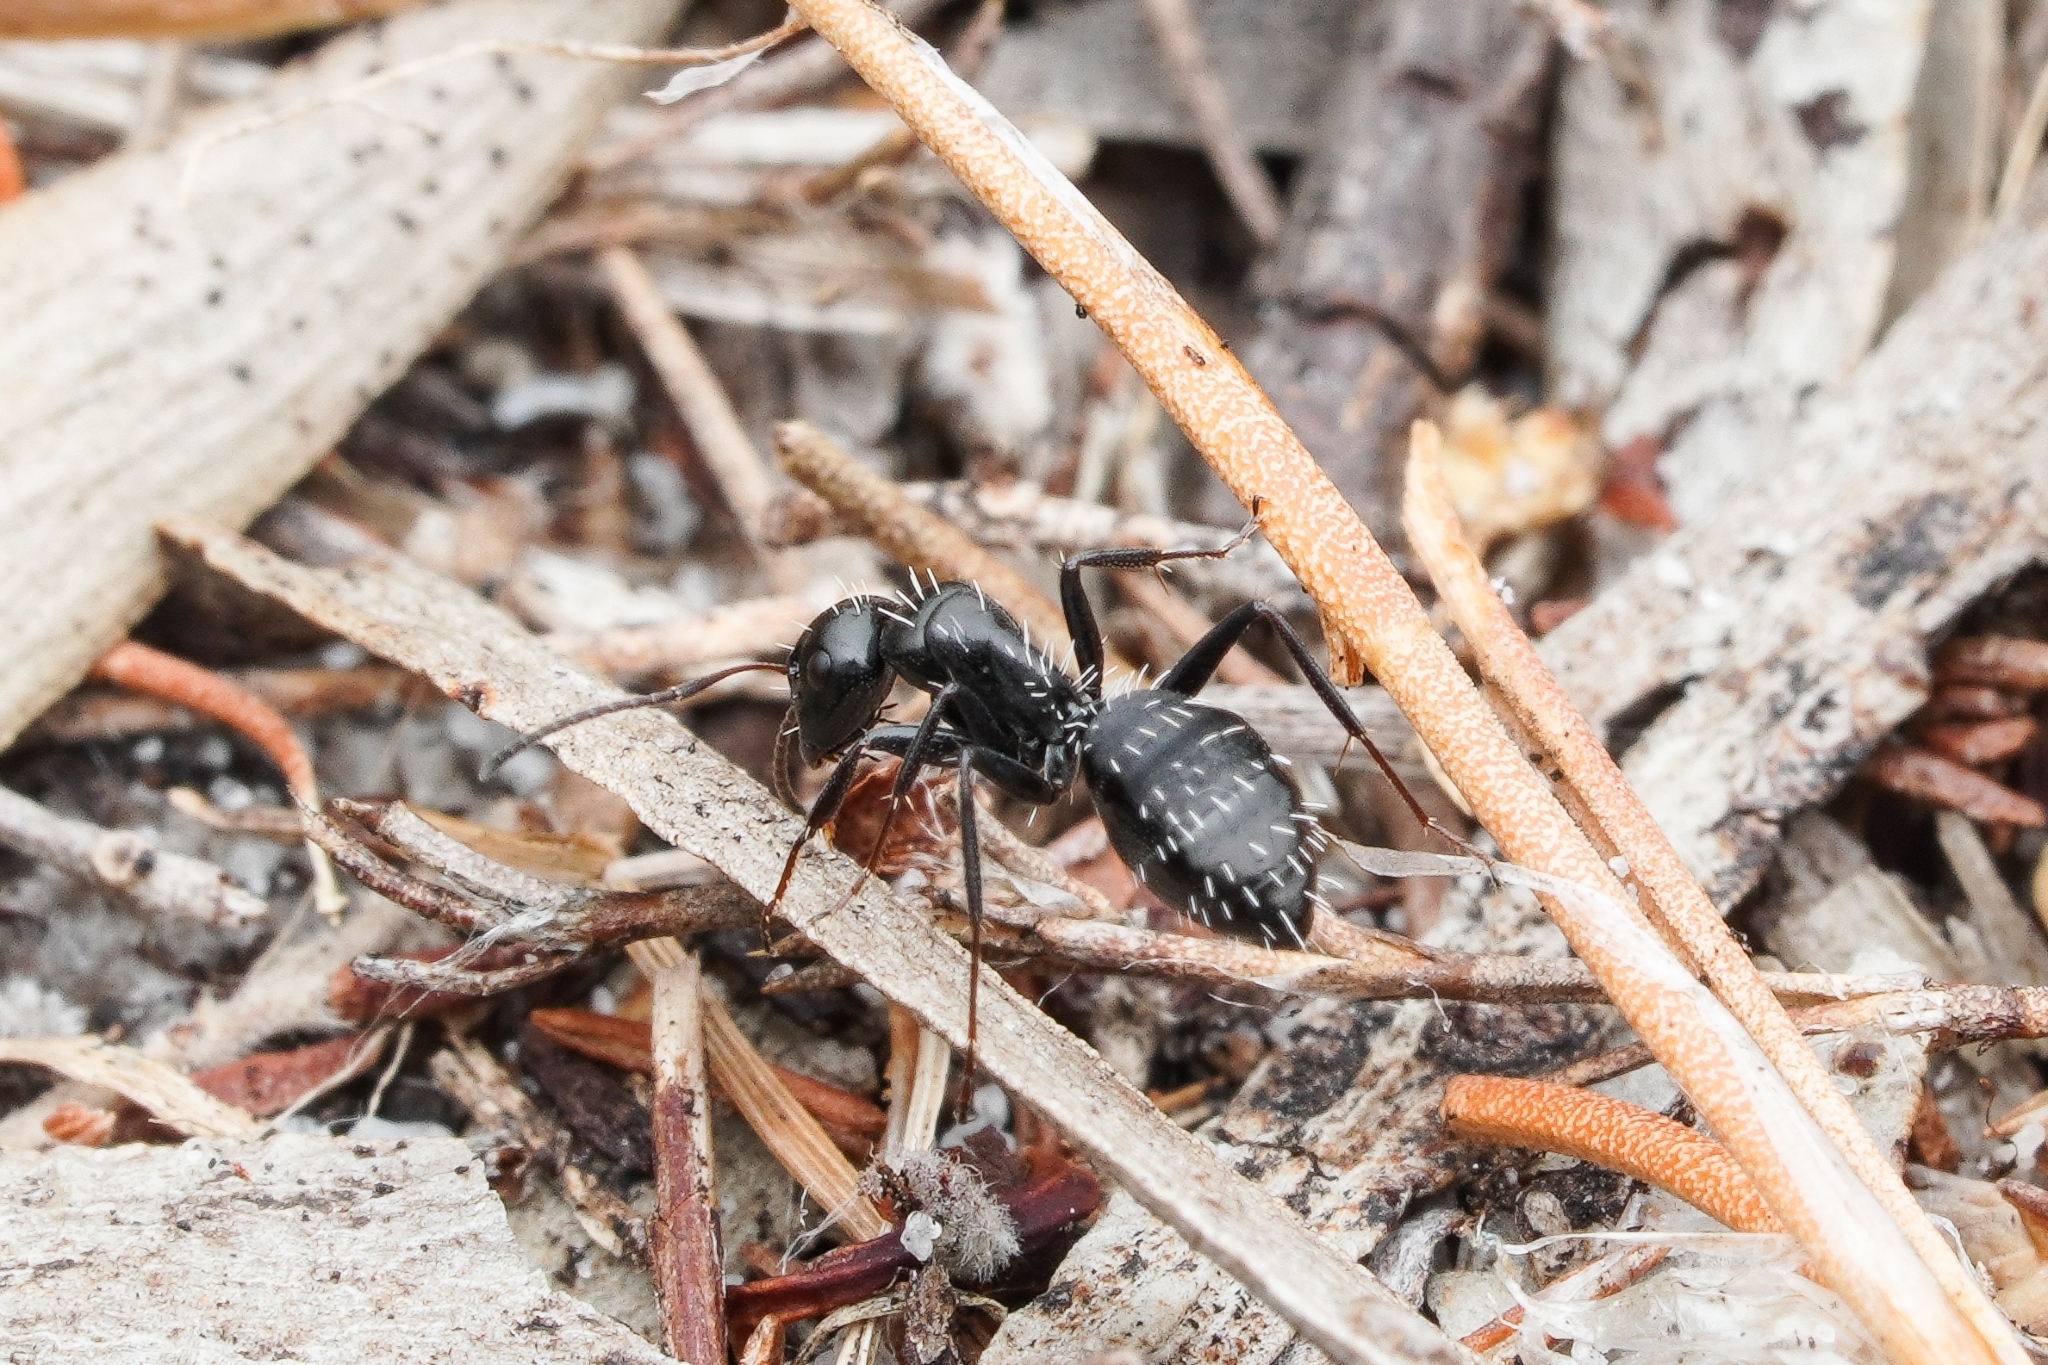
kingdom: Animalia
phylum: Arthropoda
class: Insecta
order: Hymenoptera
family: Formicidae
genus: Camponotus
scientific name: Camponotus niveosetosus
